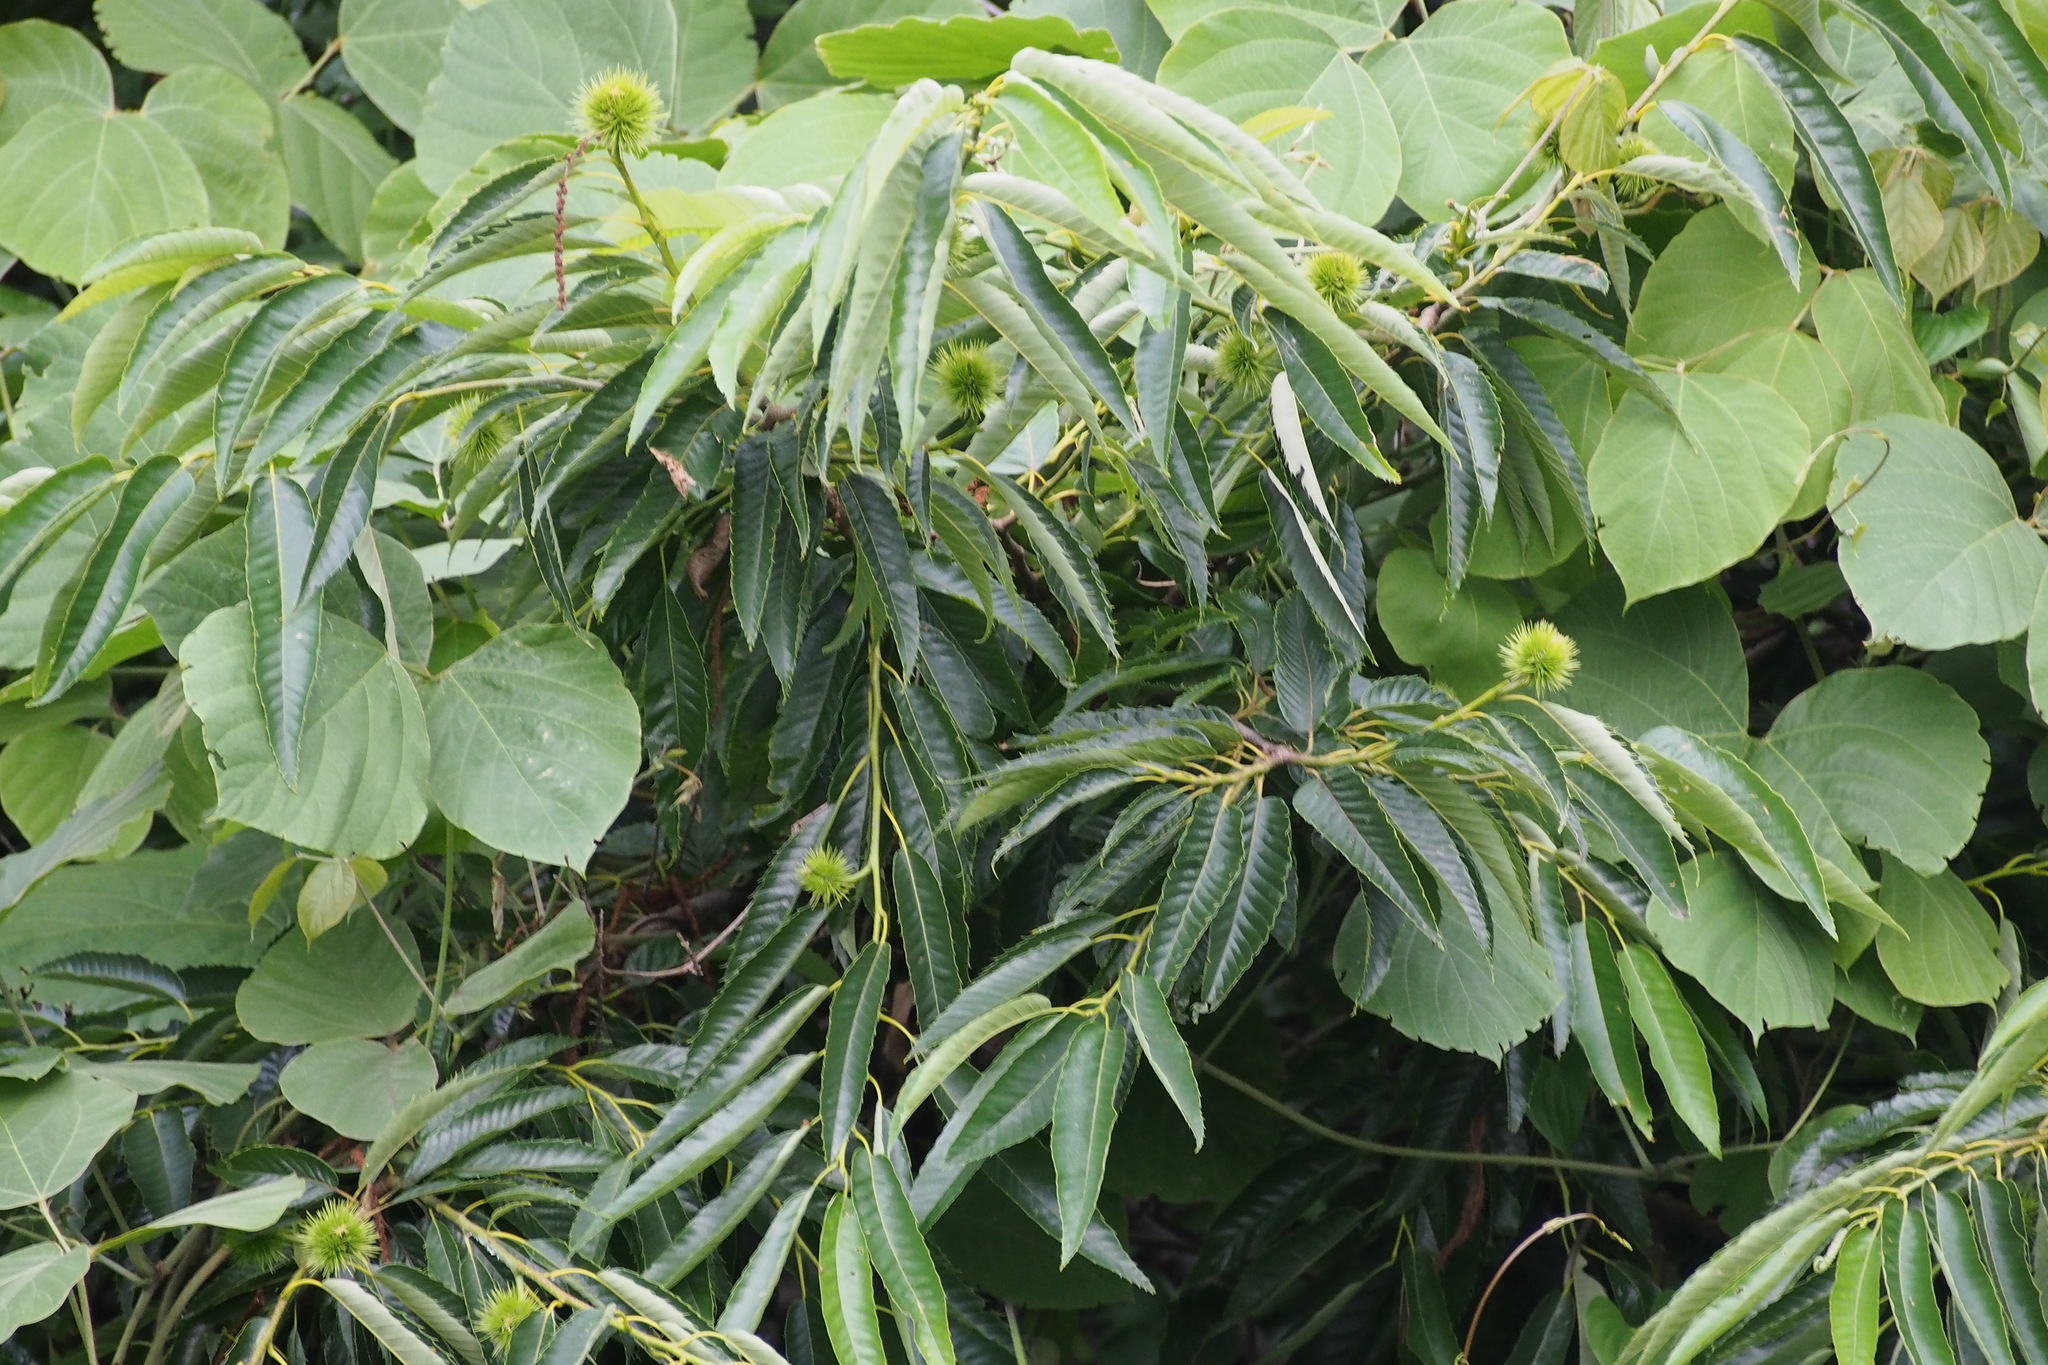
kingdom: Plantae
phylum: Tracheophyta
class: Magnoliopsida
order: Fagales
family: Fagaceae
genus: Castanea
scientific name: Castanea crenata
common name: Japanese chestnut
